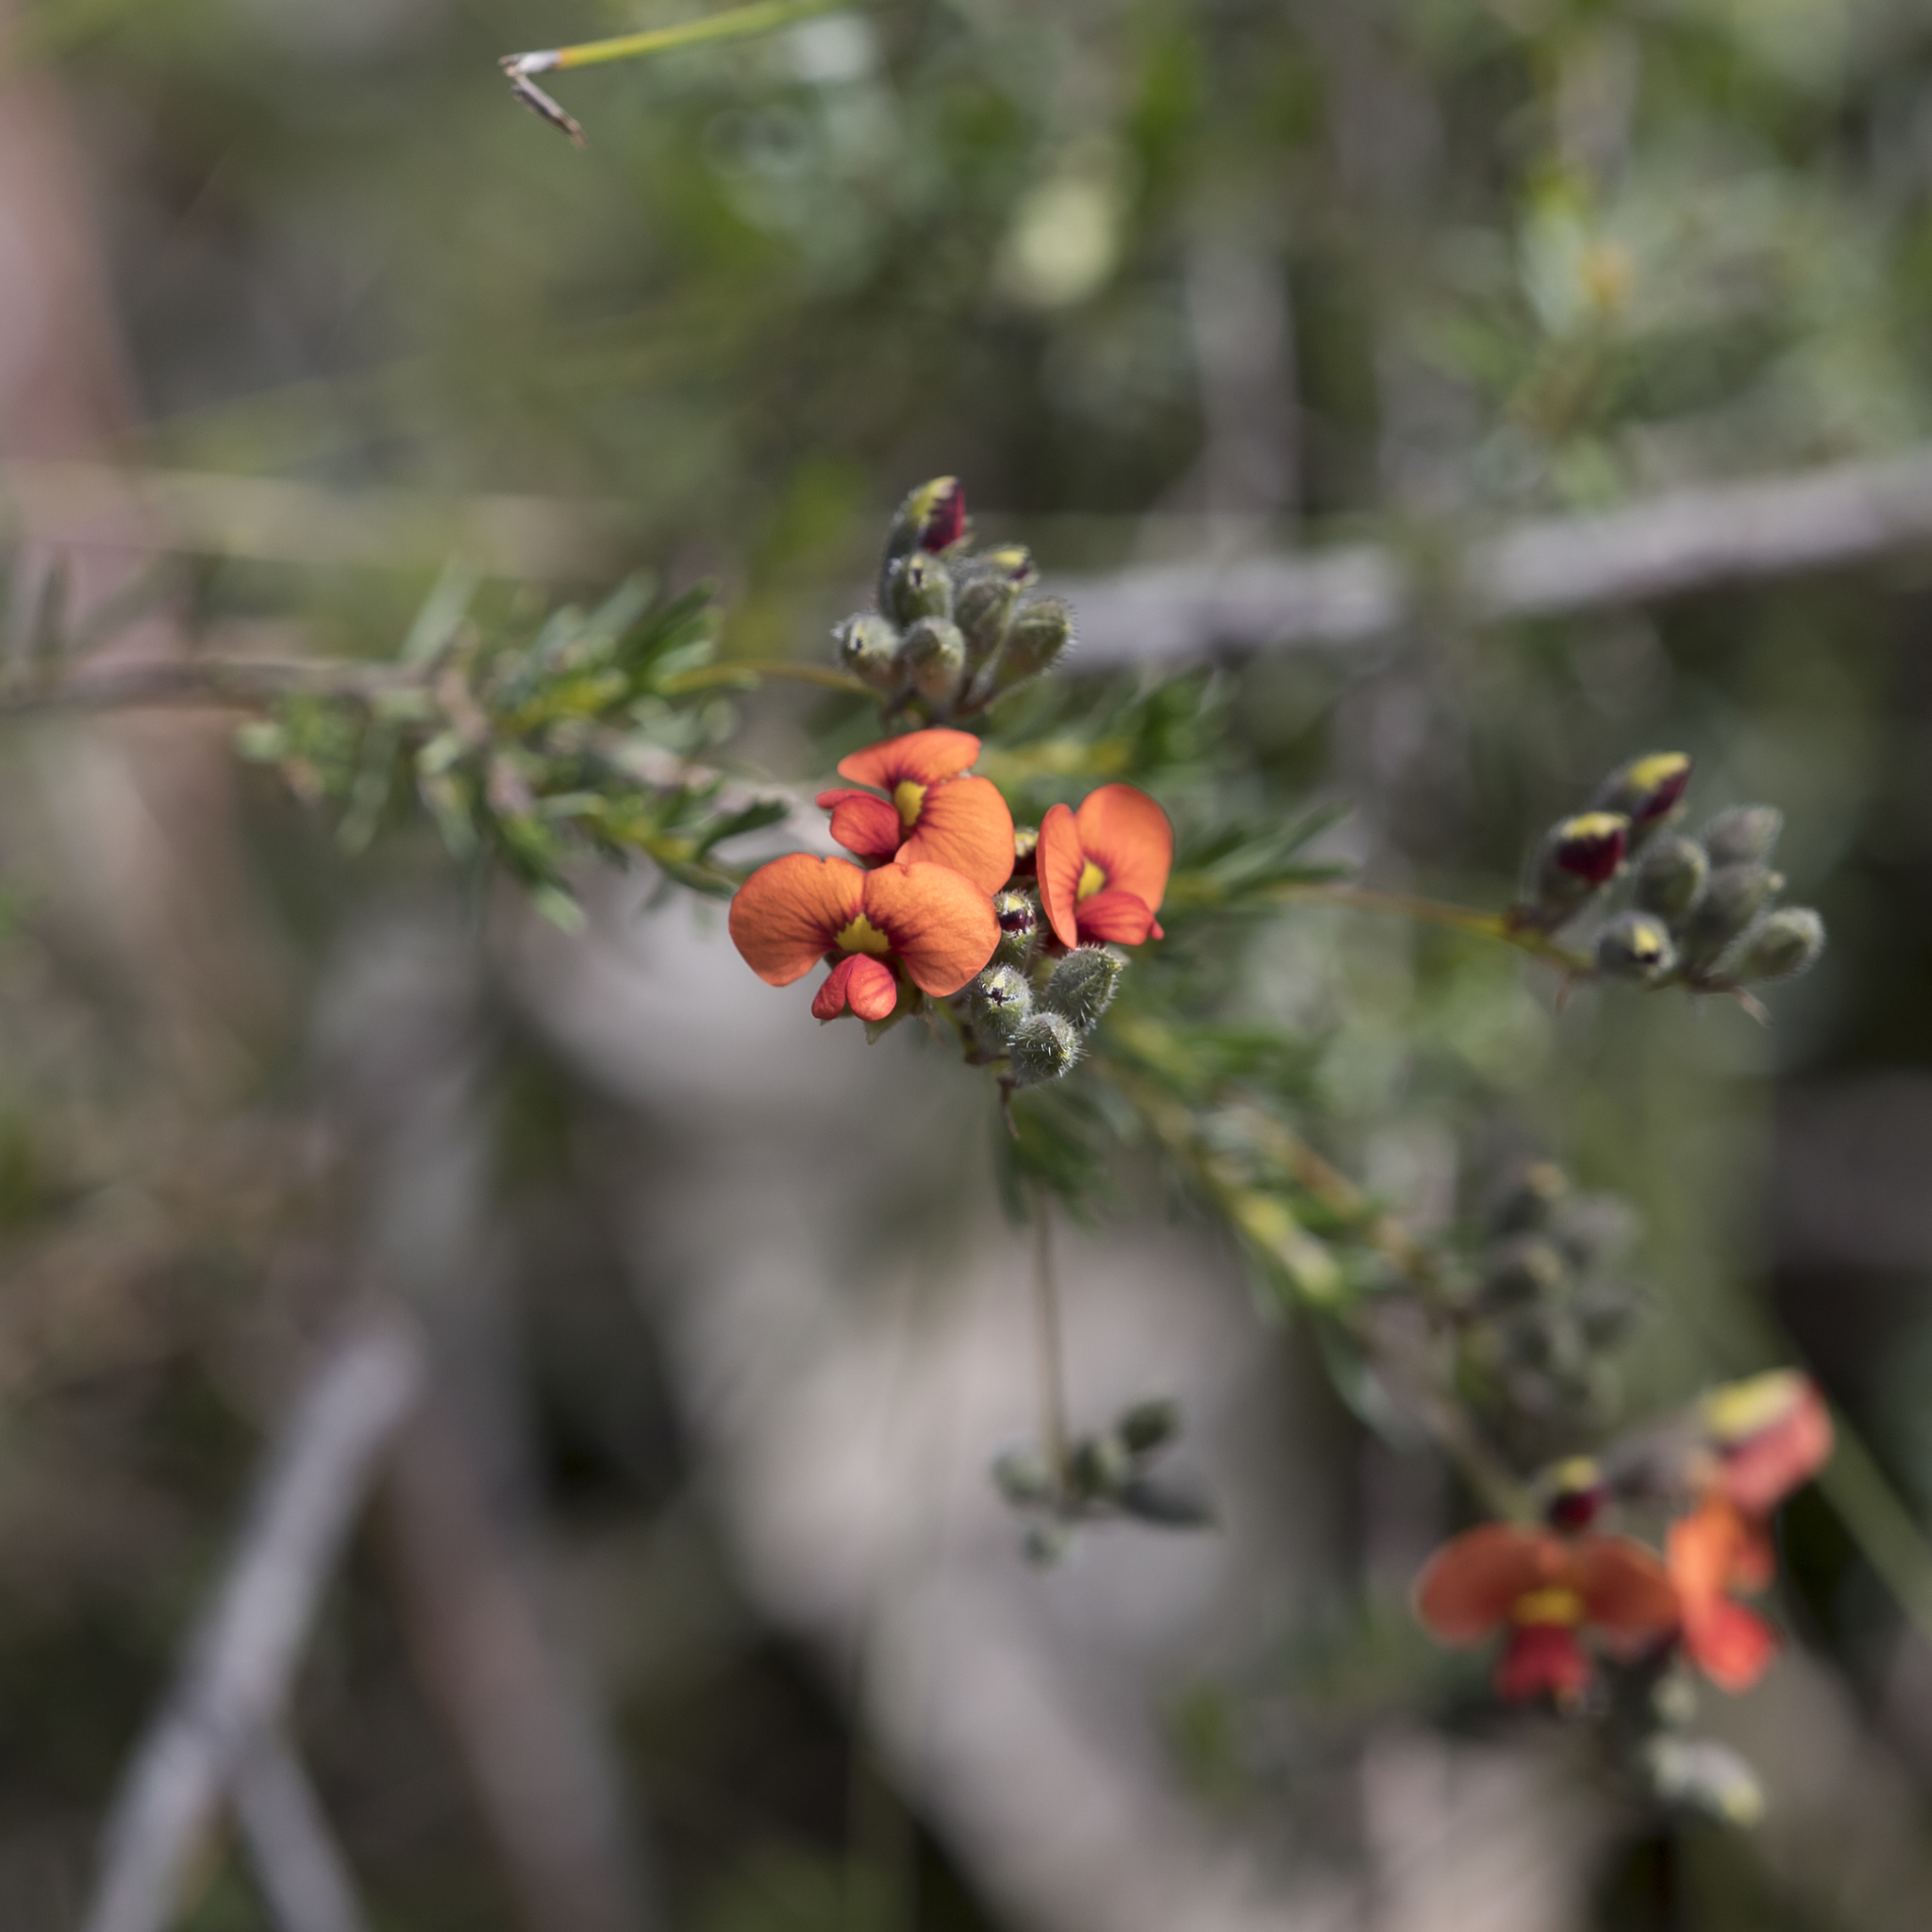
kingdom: Plantae
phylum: Tracheophyta
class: Magnoliopsida
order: Fabales
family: Fabaceae
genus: Dillwynia
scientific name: Dillwynia hispida
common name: Red parrot-pea
